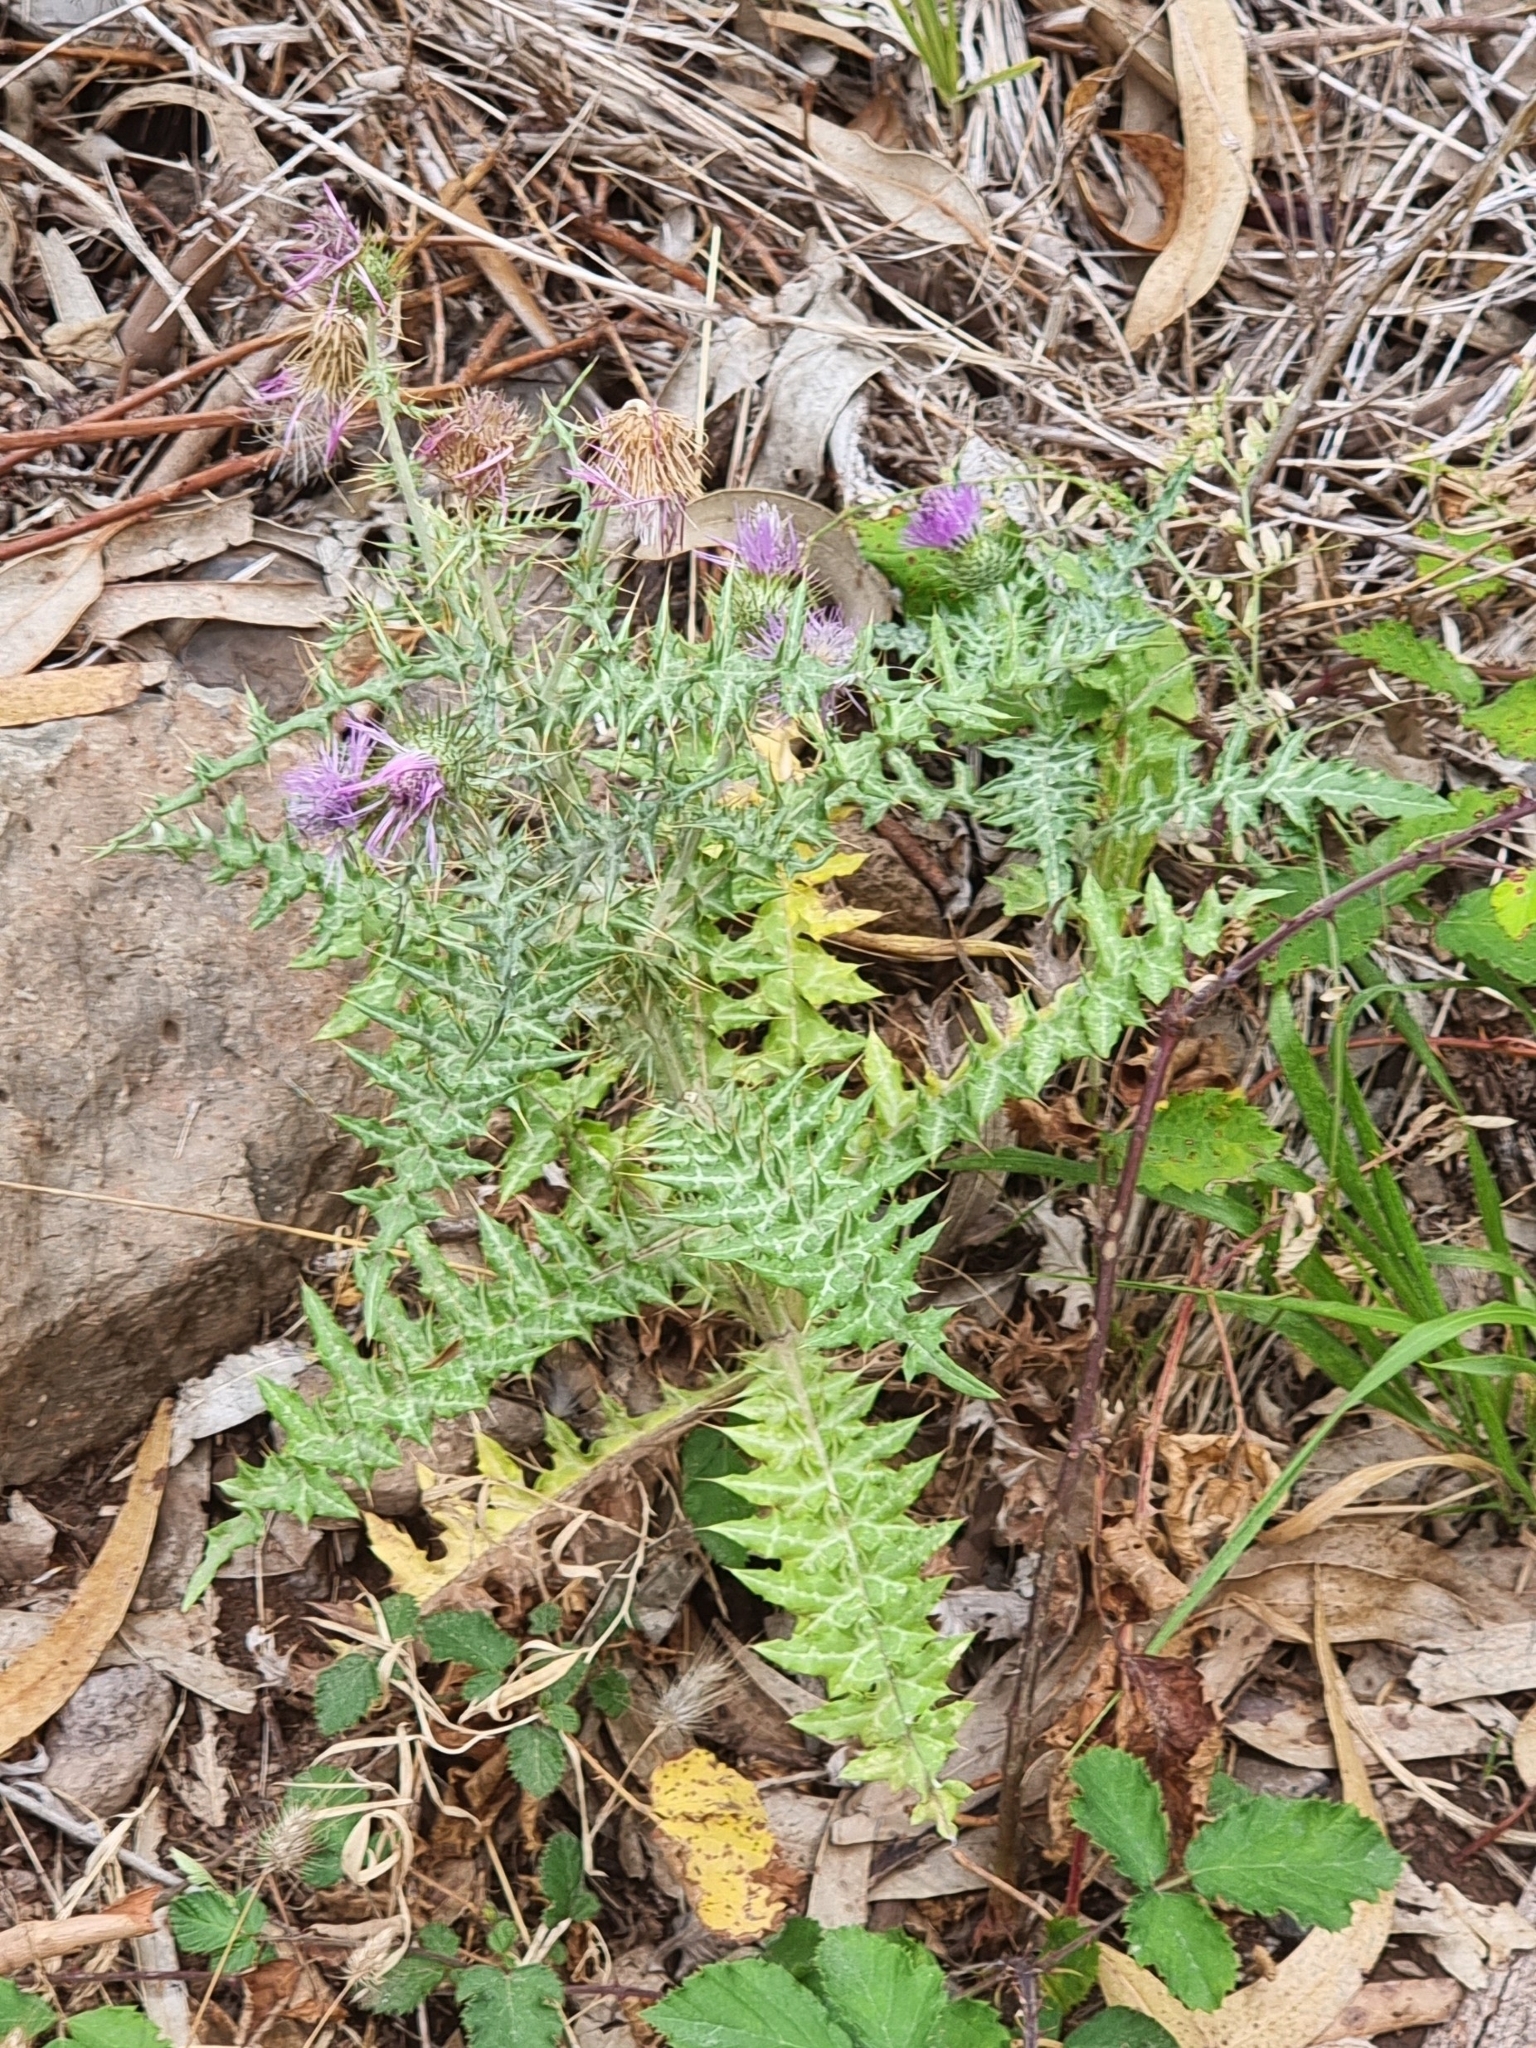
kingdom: Plantae
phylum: Tracheophyta
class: Magnoliopsida
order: Asterales
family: Asteraceae
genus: Galactites
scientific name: Galactites tomentosa
